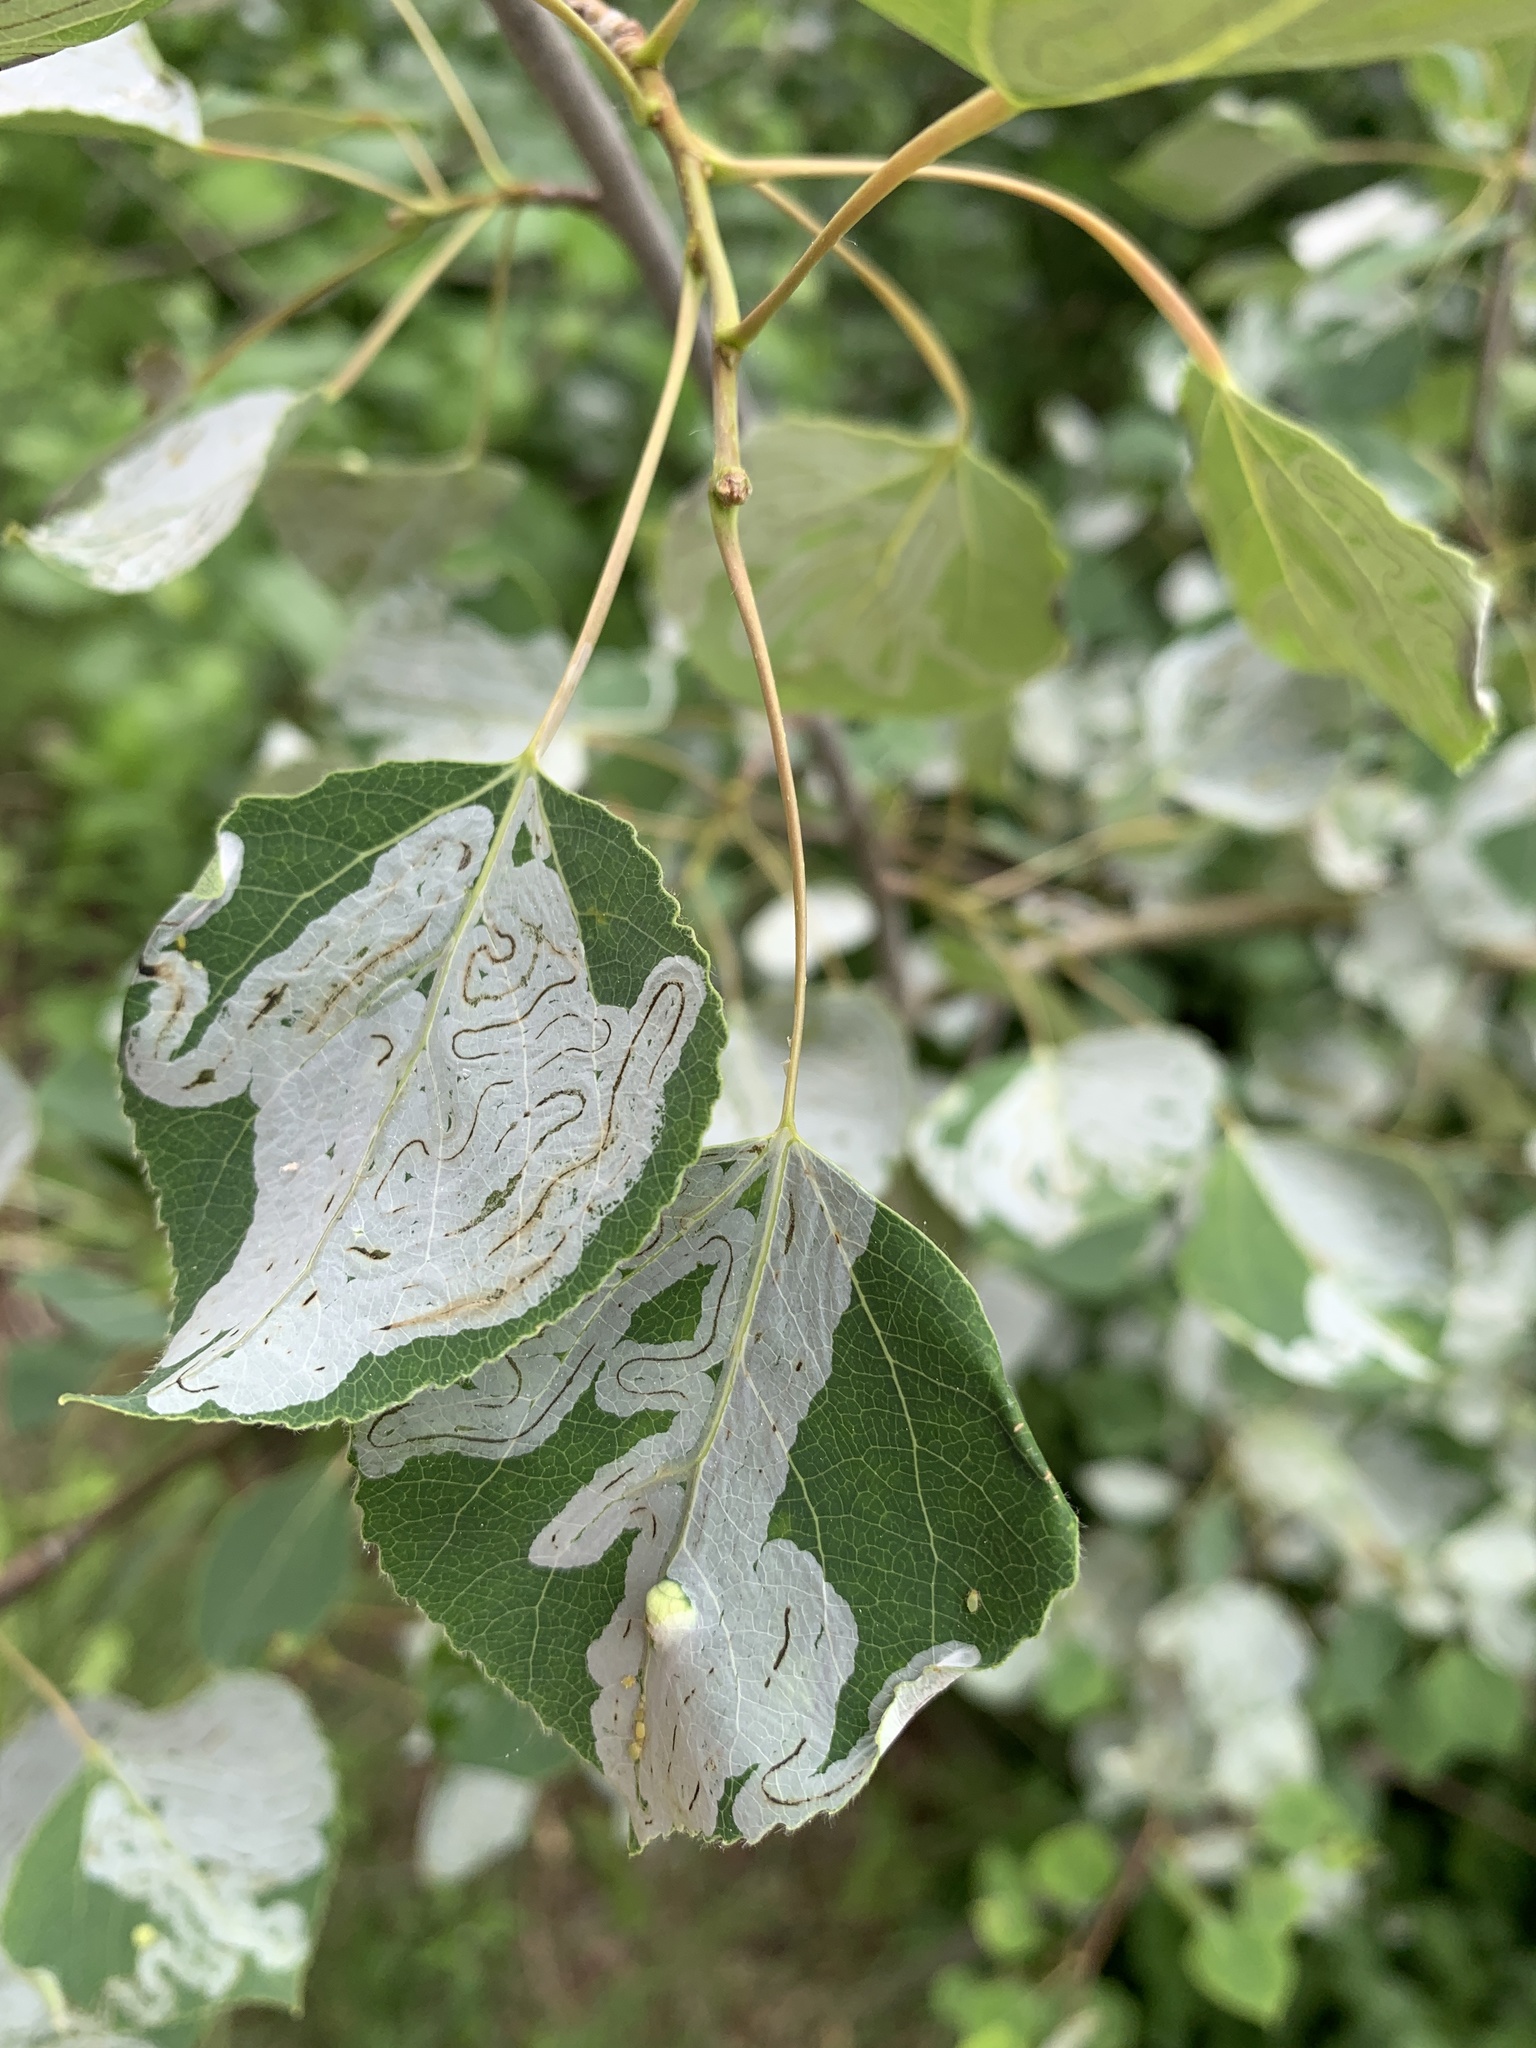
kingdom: Animalia
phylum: Arthropoda
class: Insecta
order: Lepidoptera
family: Gracillariidae
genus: Phyllocnistis
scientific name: Phyllocnistis populiella
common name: Aspen serpentine leafminer moth
